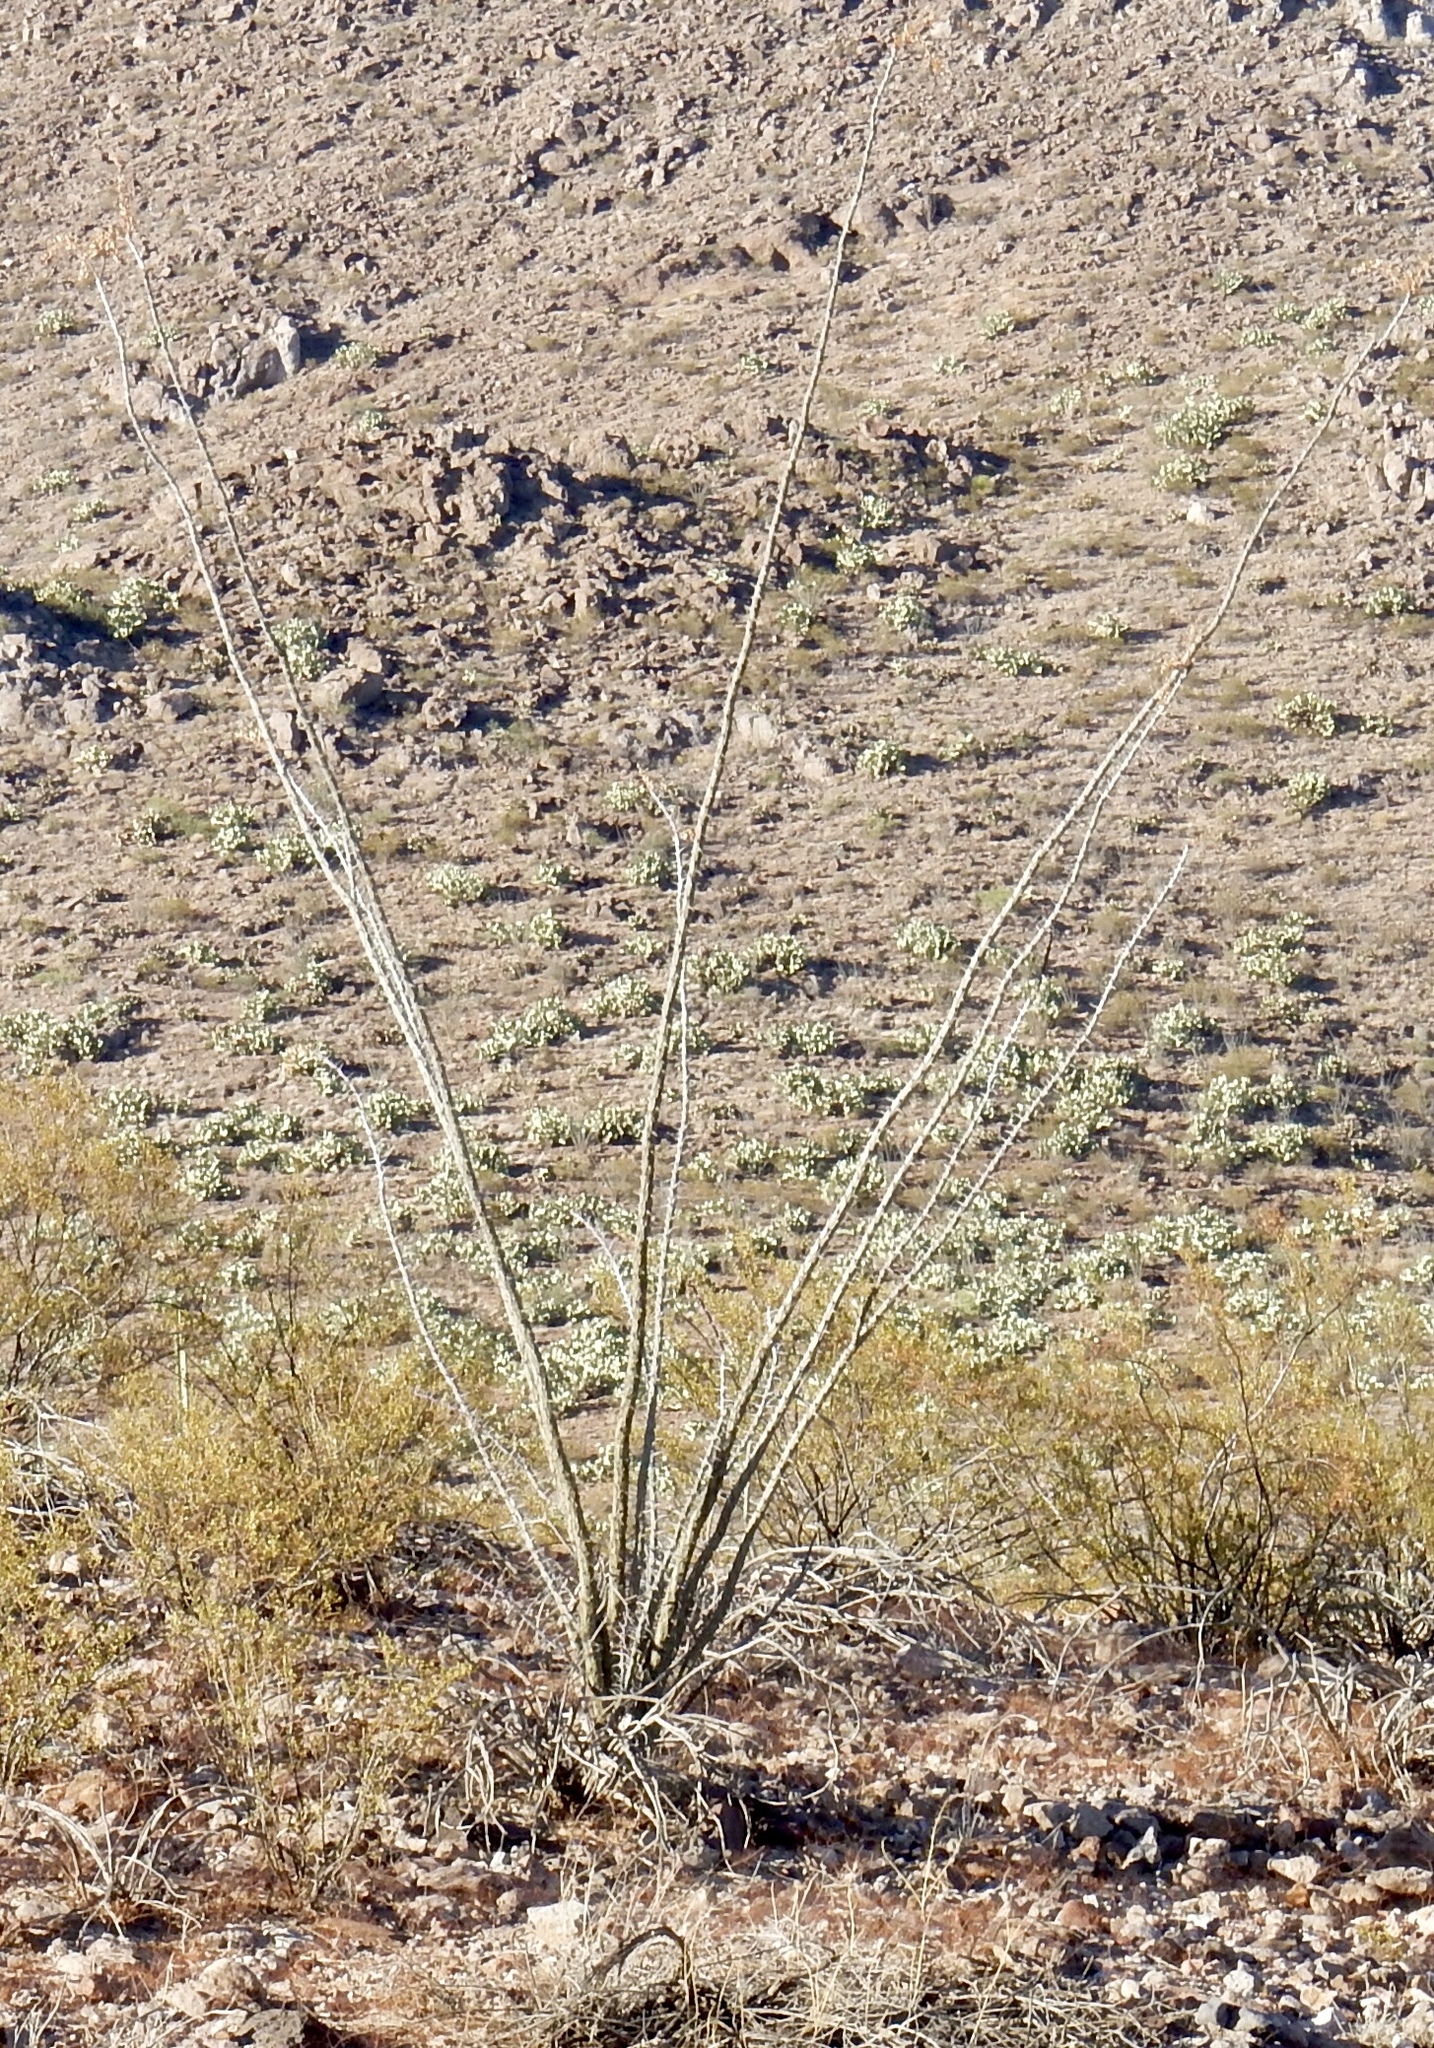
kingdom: Plantae
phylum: Tracheophyta
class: Magnoliopsida
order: Ericales
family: Fouquieriaceae
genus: Fouquieria
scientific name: Fouquieria splendens
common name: Vine-cactus
